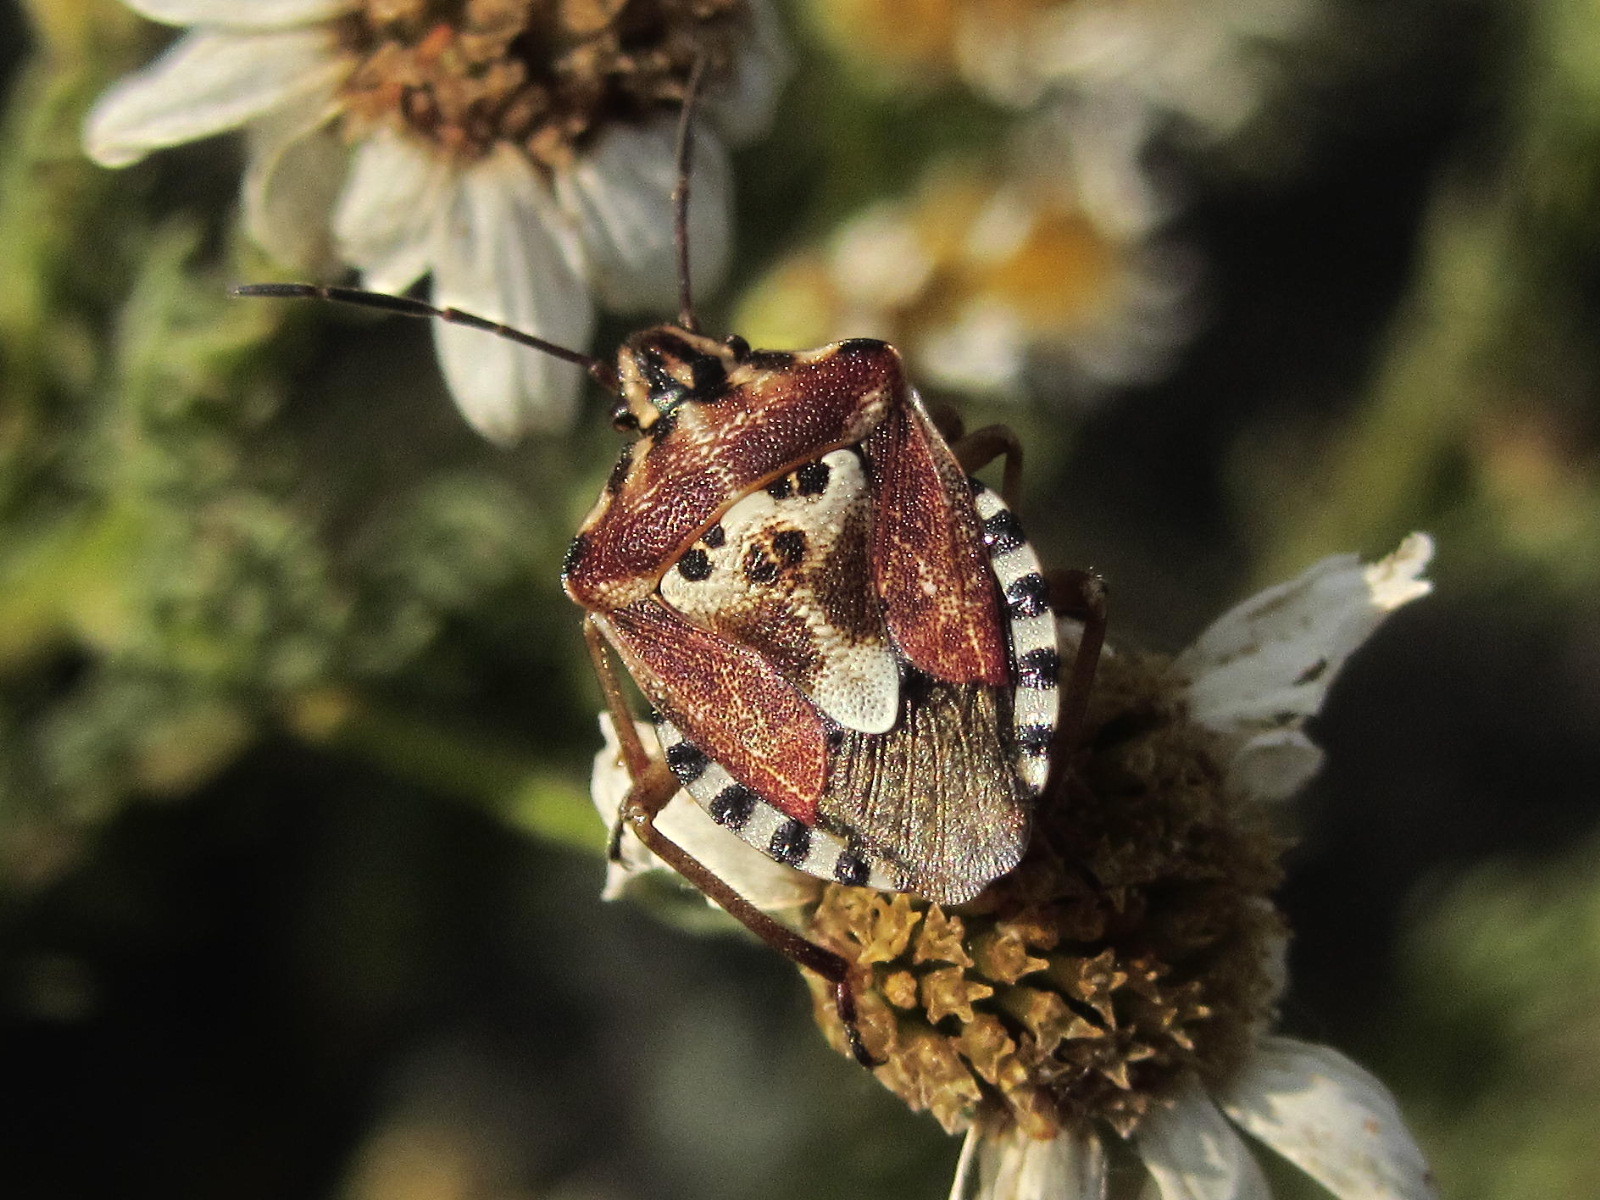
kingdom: Animalia
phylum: Arthropoda
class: Insecta
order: Hemiptera
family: Miridae
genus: Orthops
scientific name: Orthops kalmii
